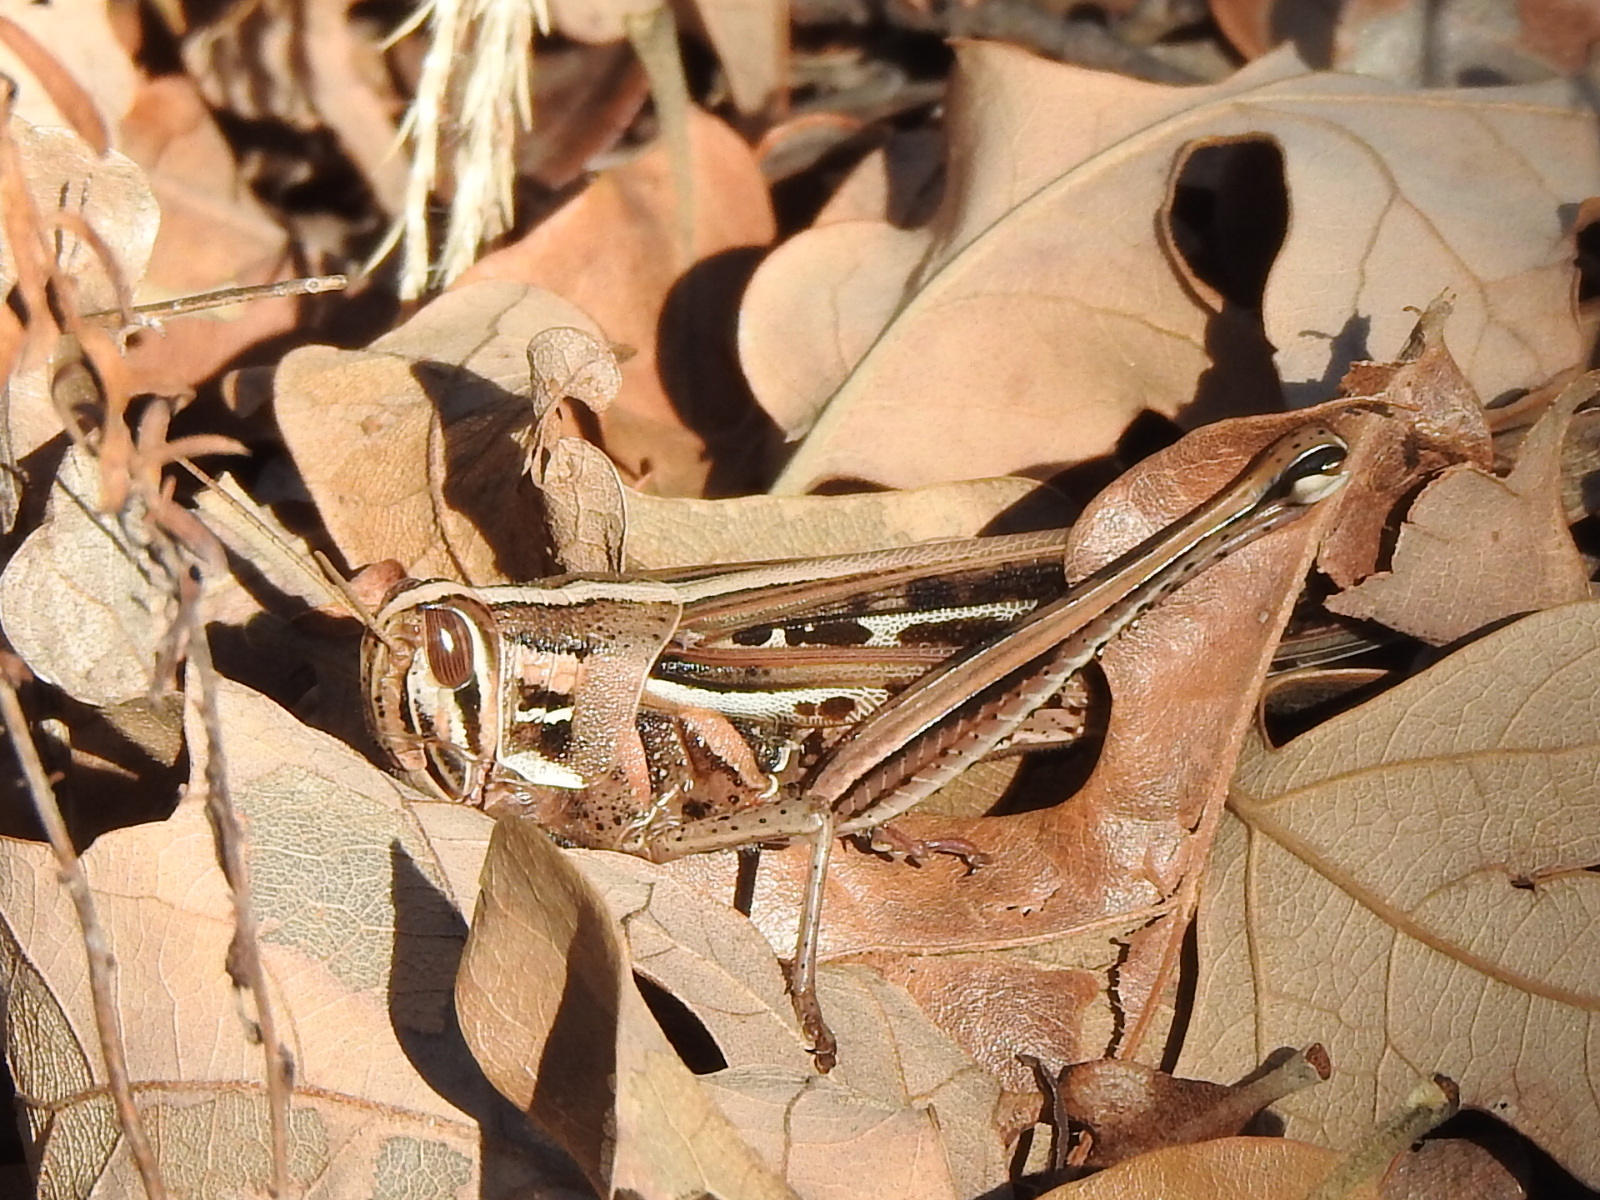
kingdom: Animalia
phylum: Arthropoda
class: Insecta
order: Orthoptera
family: Acrididae
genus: Schistocerca
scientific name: Schistocerca americana
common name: American bird locust
